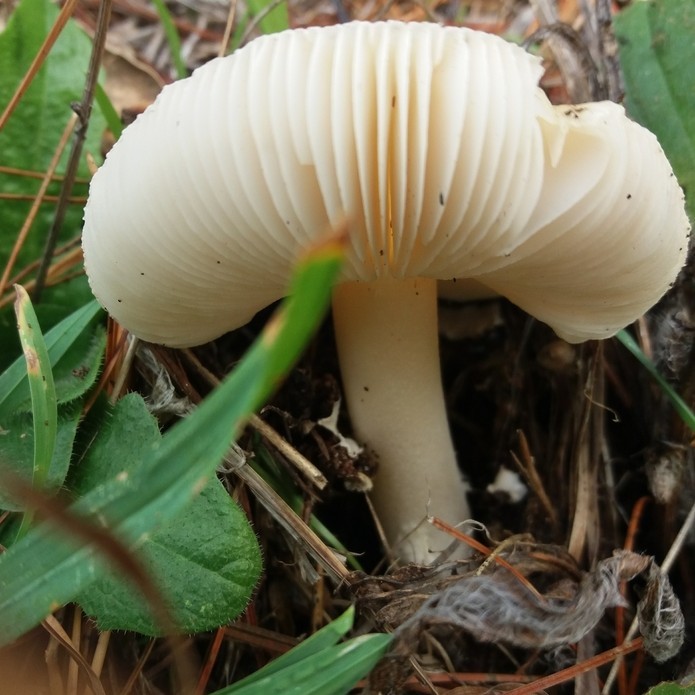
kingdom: Fungi
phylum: Basidiomycota
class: Agaricomycetes
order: Agaricales
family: Amanitaceae
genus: Amanita
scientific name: Amanita gemmata
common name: Jewelled amanita
